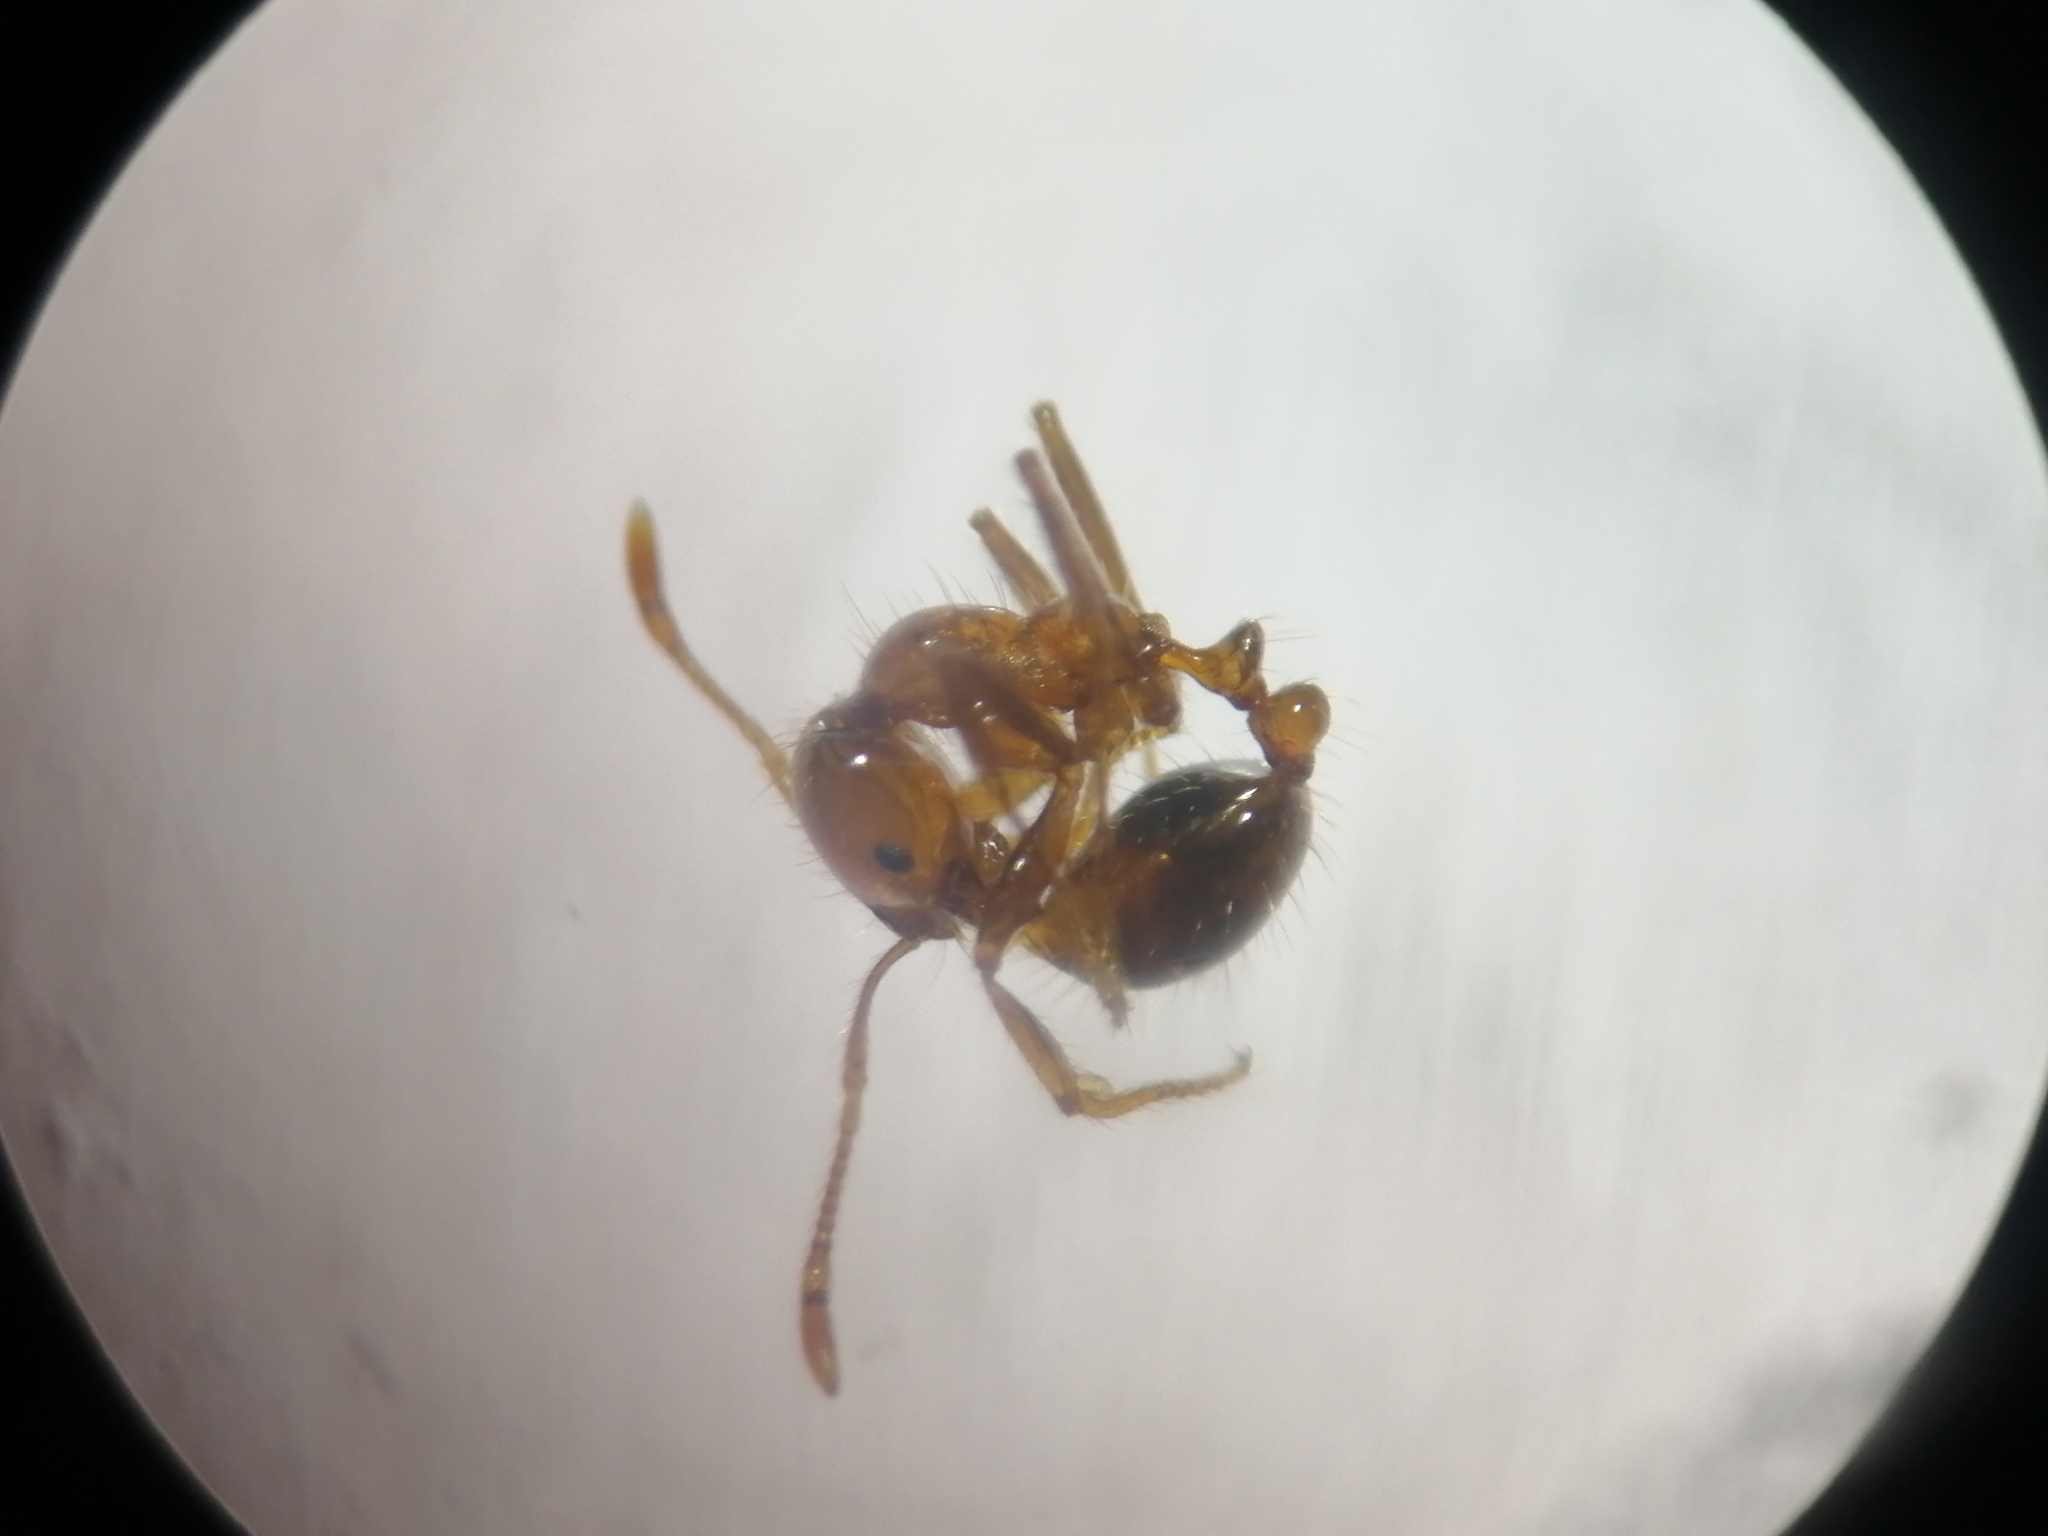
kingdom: Animalia
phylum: Arthropoda
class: Insecta
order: Hymenoptera
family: Formicidae
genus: Solenopsis
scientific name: Solenopsis geminata
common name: Tropical fire ant
